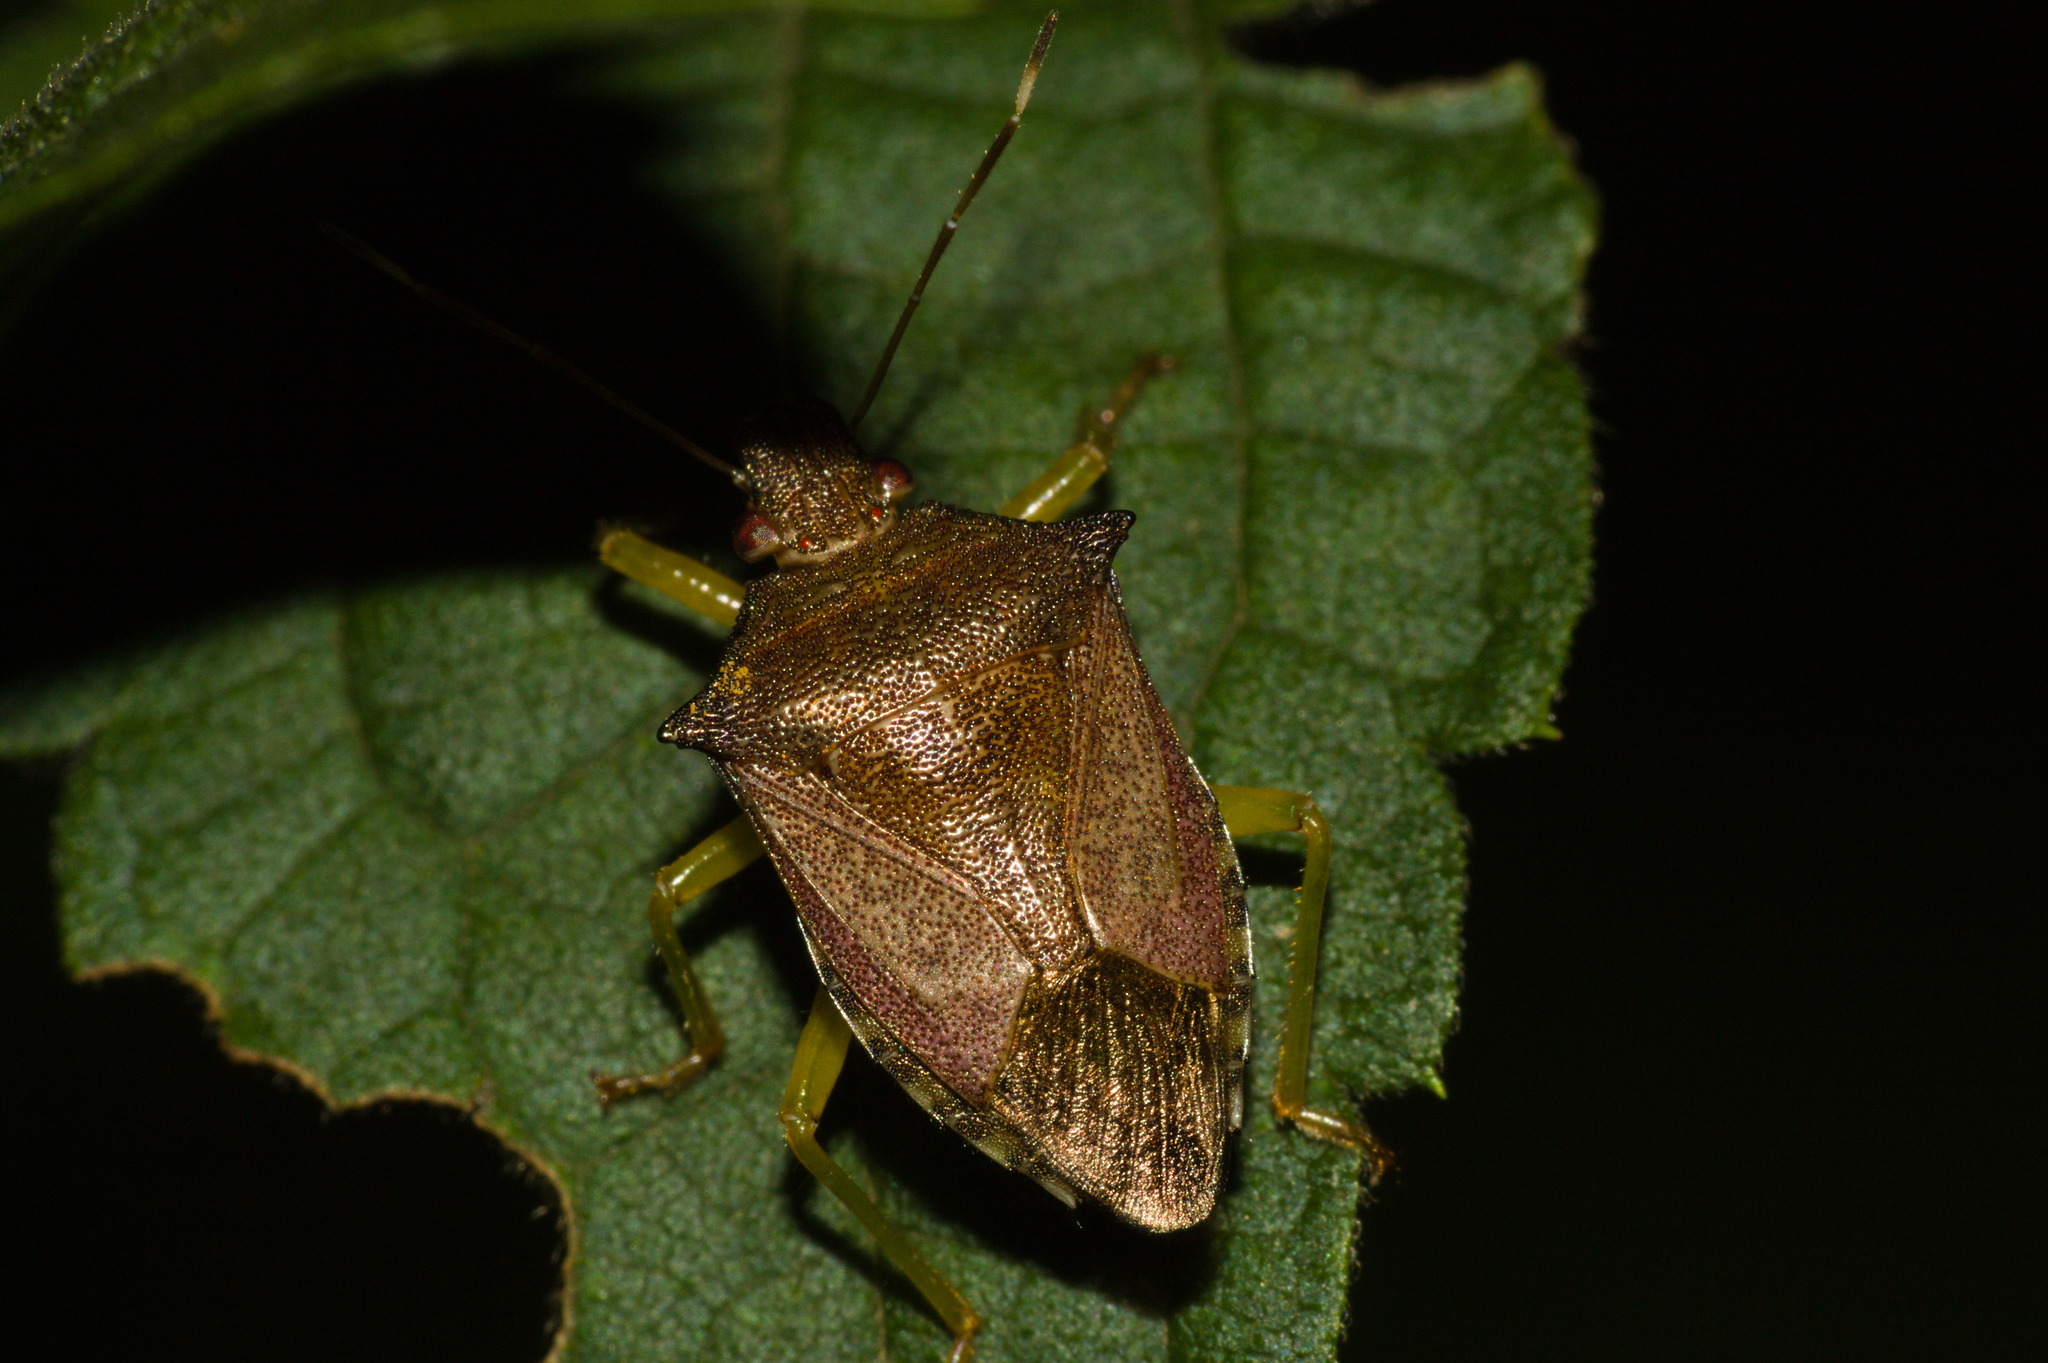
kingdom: Animalia
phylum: Arthropoda
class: Insecta
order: Hemiptera
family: Pentatomidae
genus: Podisus
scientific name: Podisus fuscescens
